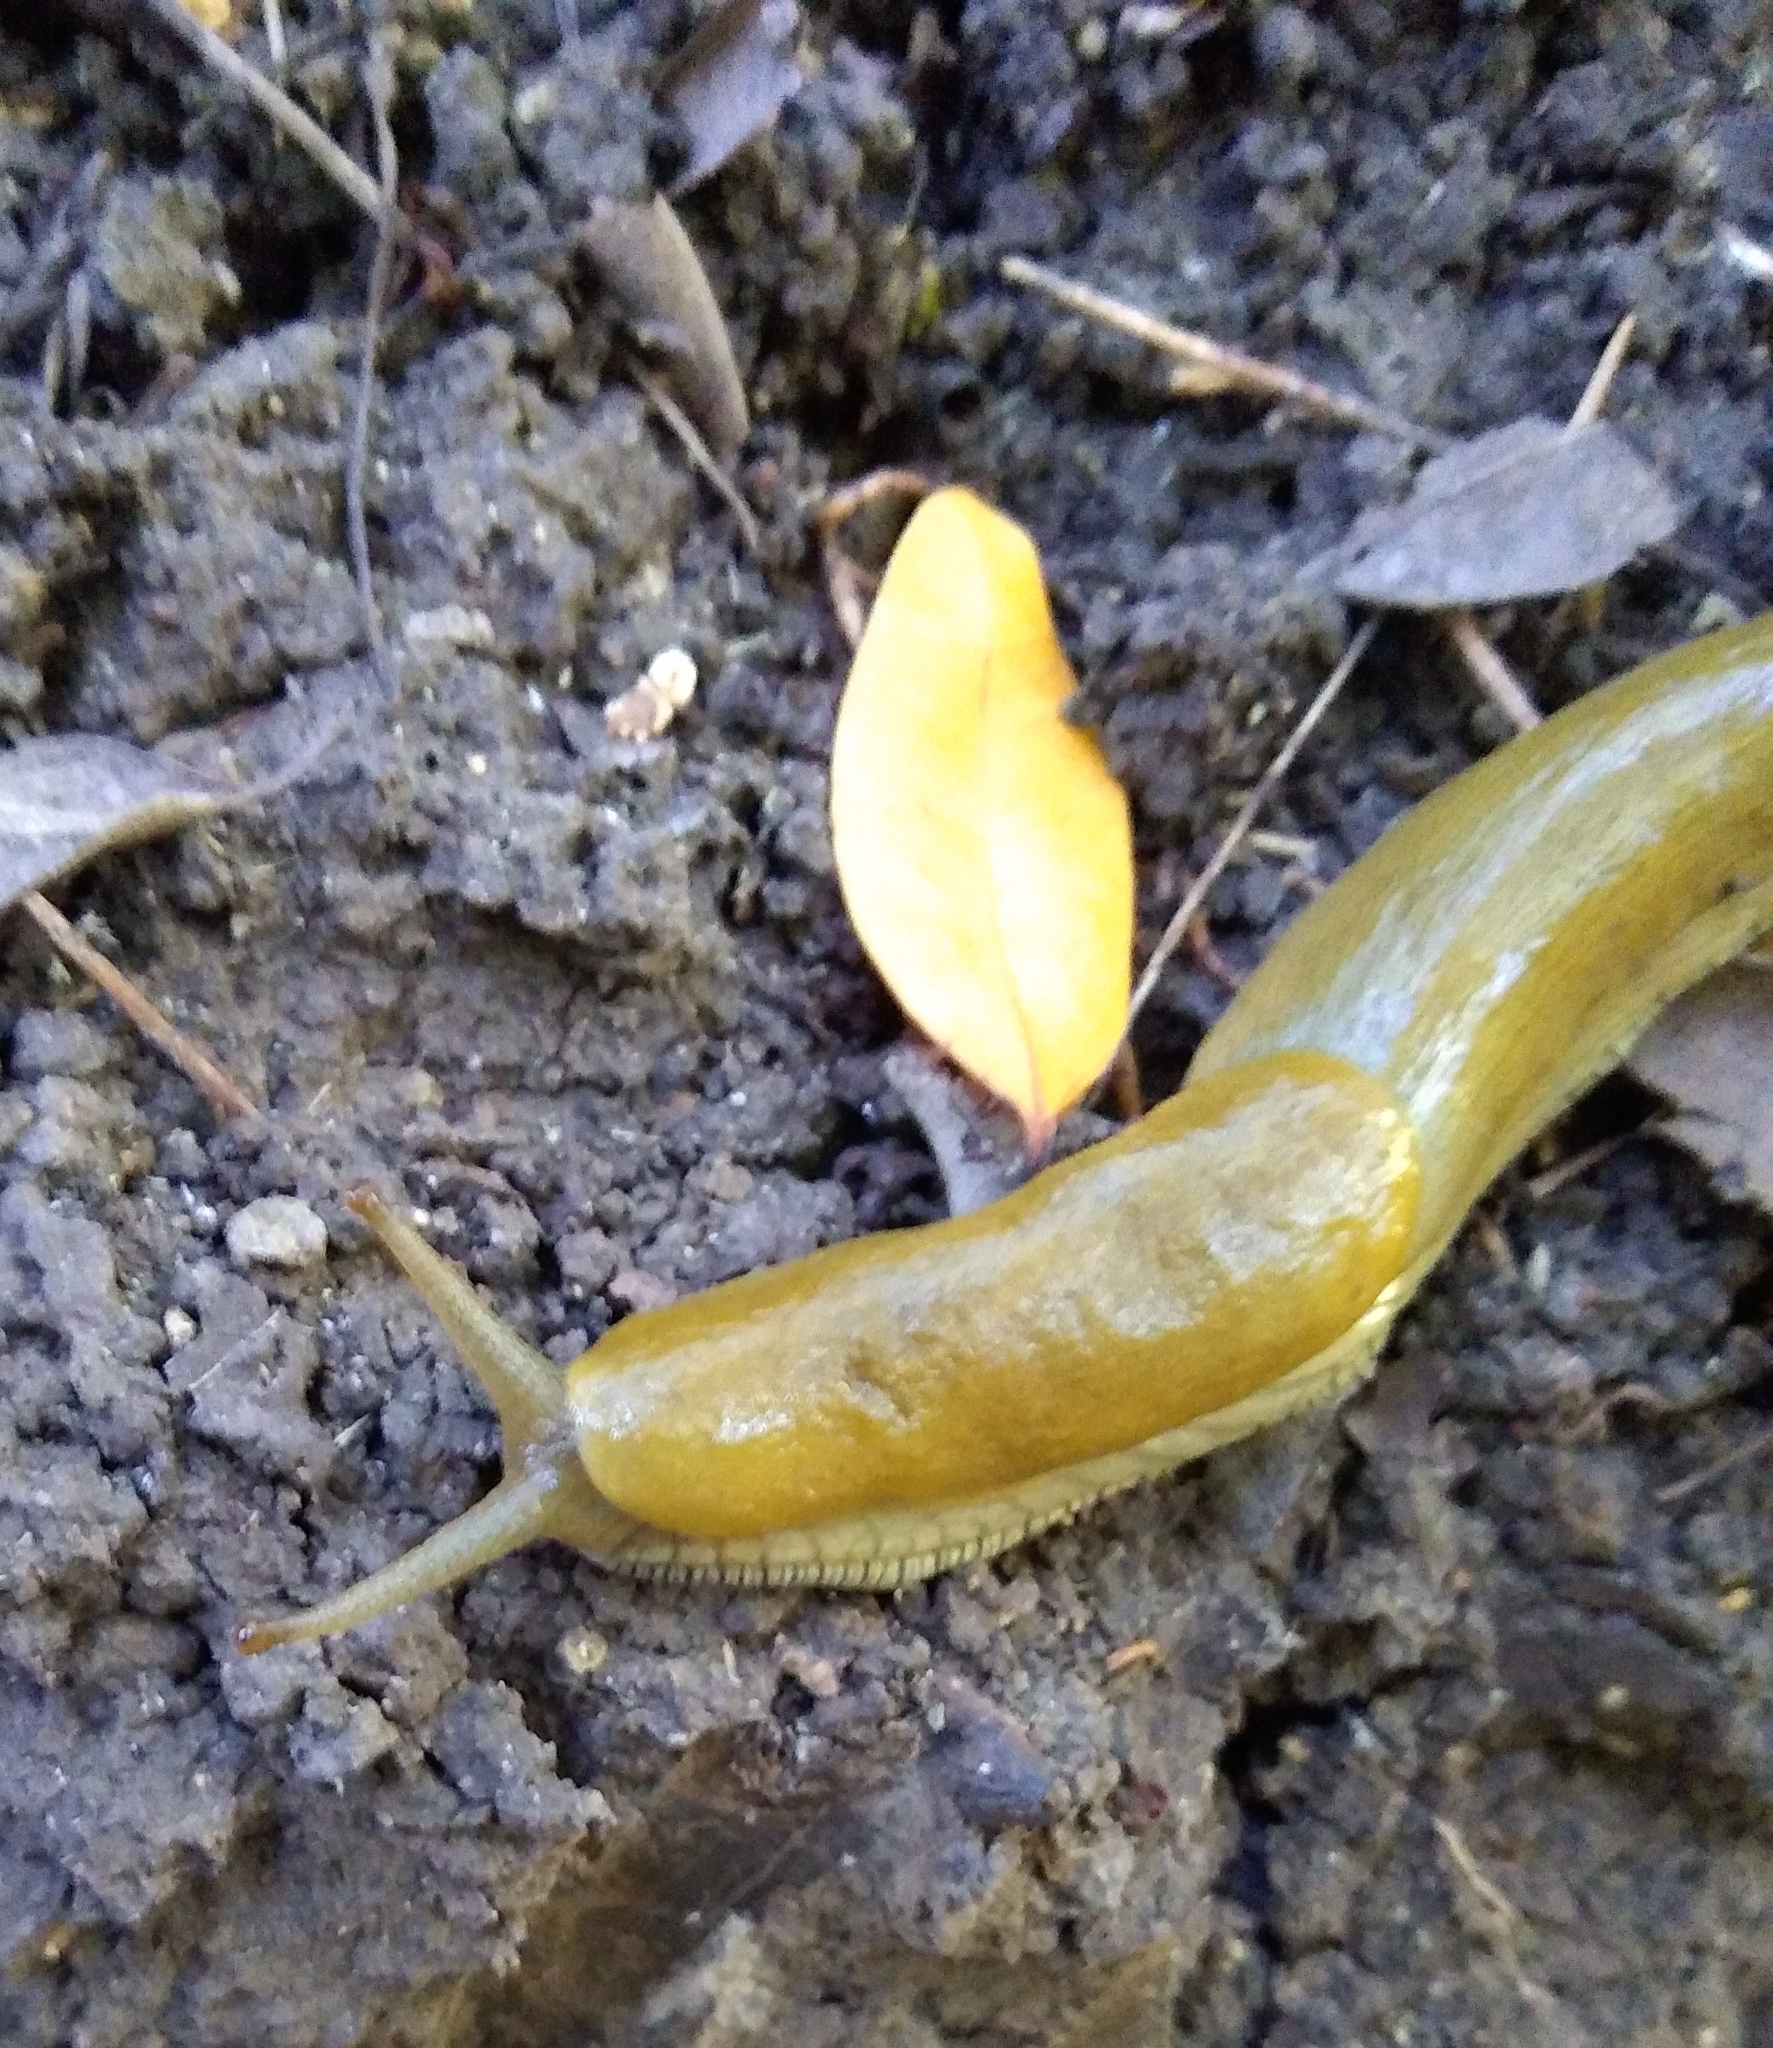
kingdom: Animalia
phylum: Mollusca
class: Gastropoda
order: Stylommatophora
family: Ariolimacidae
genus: Ariolimax
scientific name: Ariolimax buttoni
